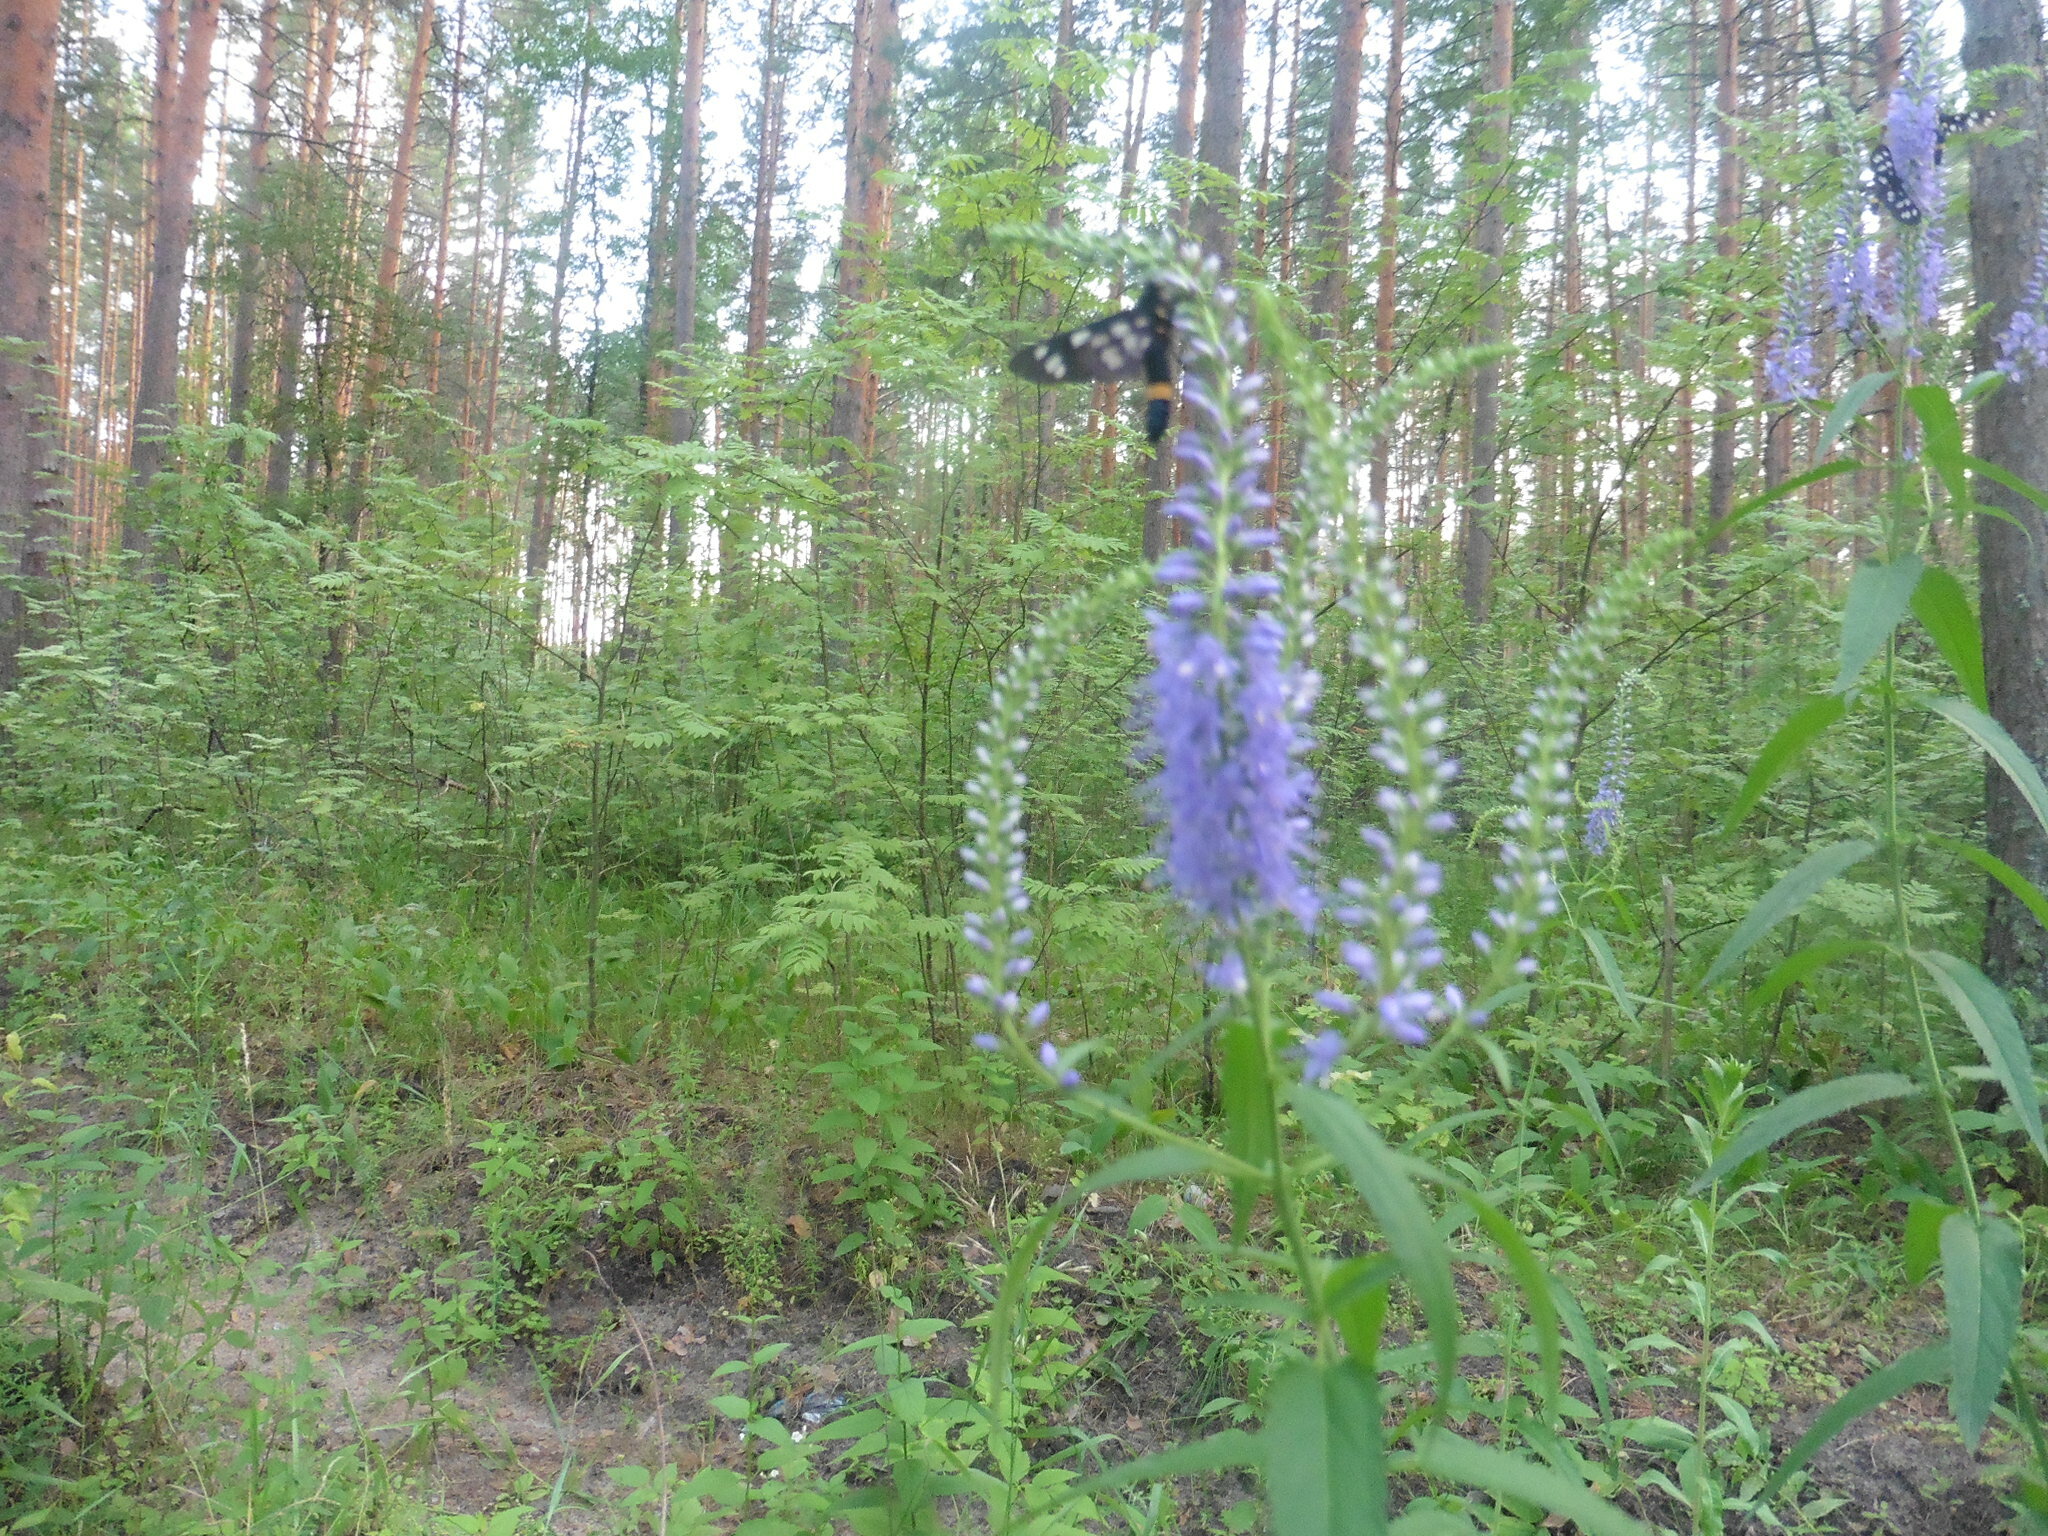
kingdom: Plantae
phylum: Tracheophyta
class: Magnoliopsida
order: Lamiales
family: Plantaginaceae
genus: Veronica
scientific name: Veronica longifolia
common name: Garden speedwell
